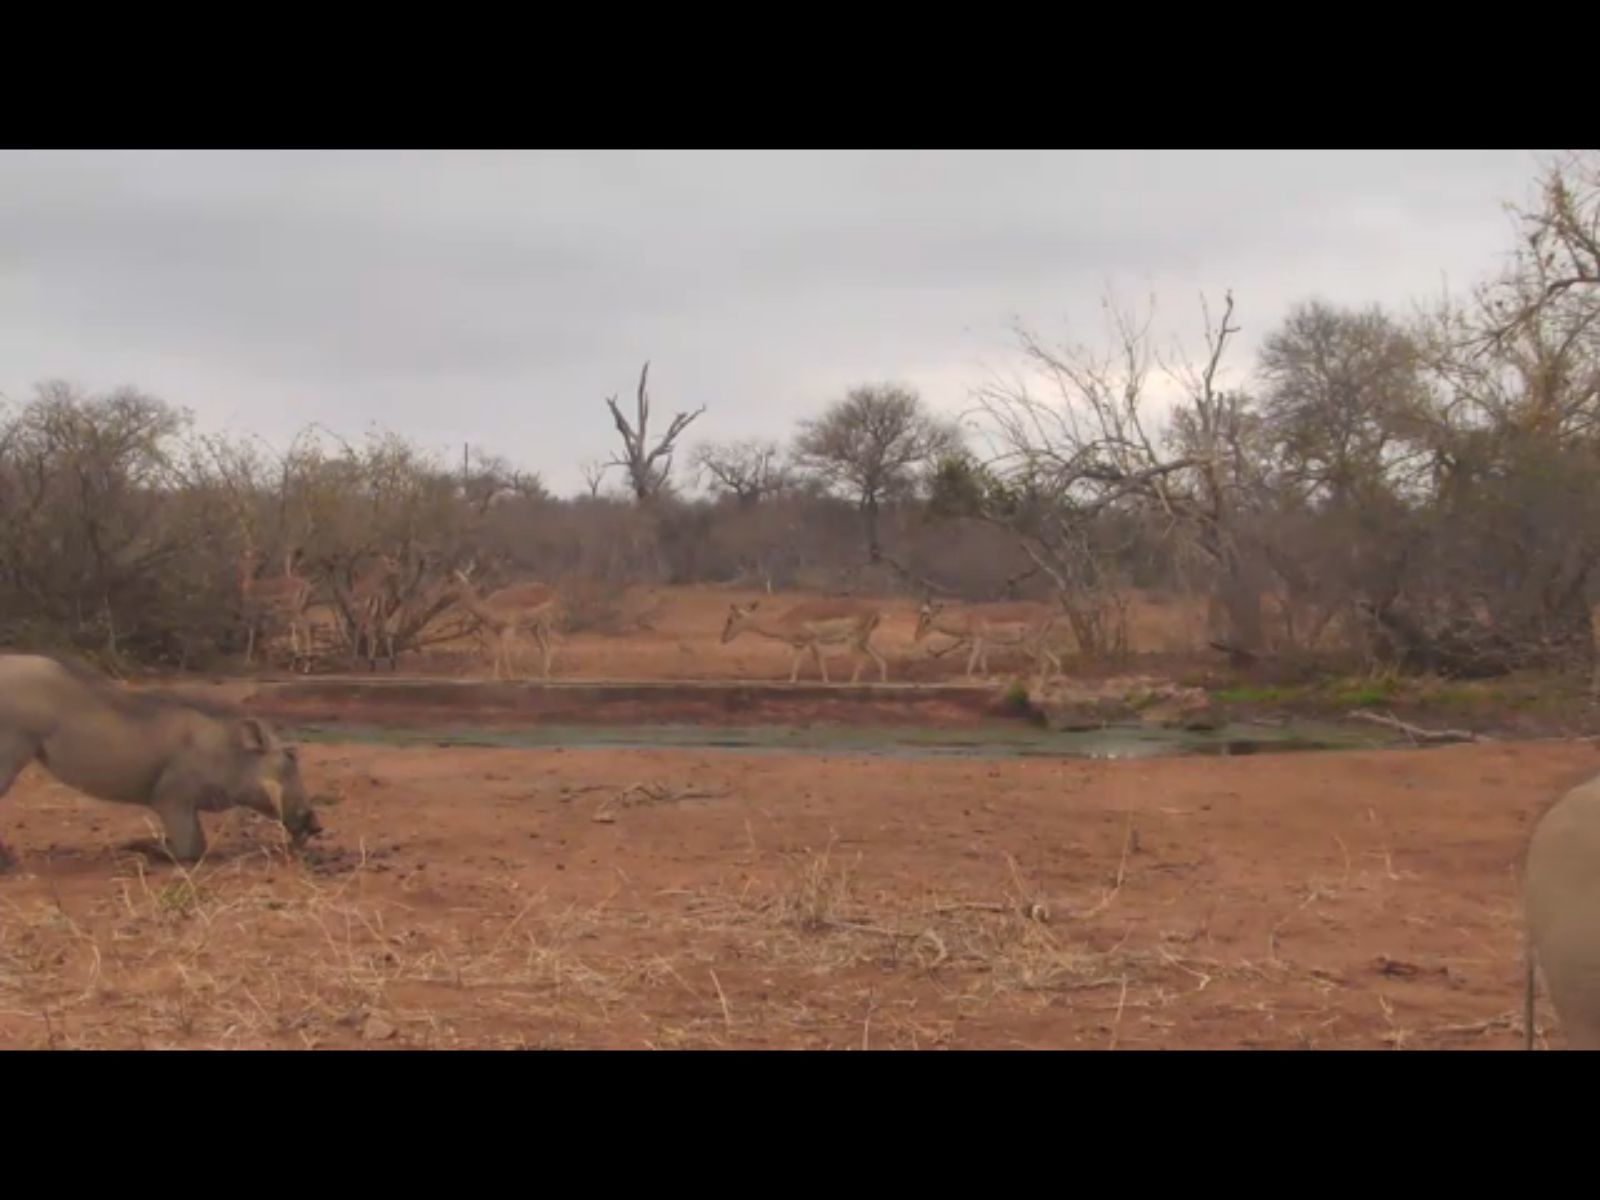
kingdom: Animalia
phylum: Chordata
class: Mammalia
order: Artiodactyla
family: Suidae
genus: Phacochoerus
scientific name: Phacochoerus africanus
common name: Common warthog
